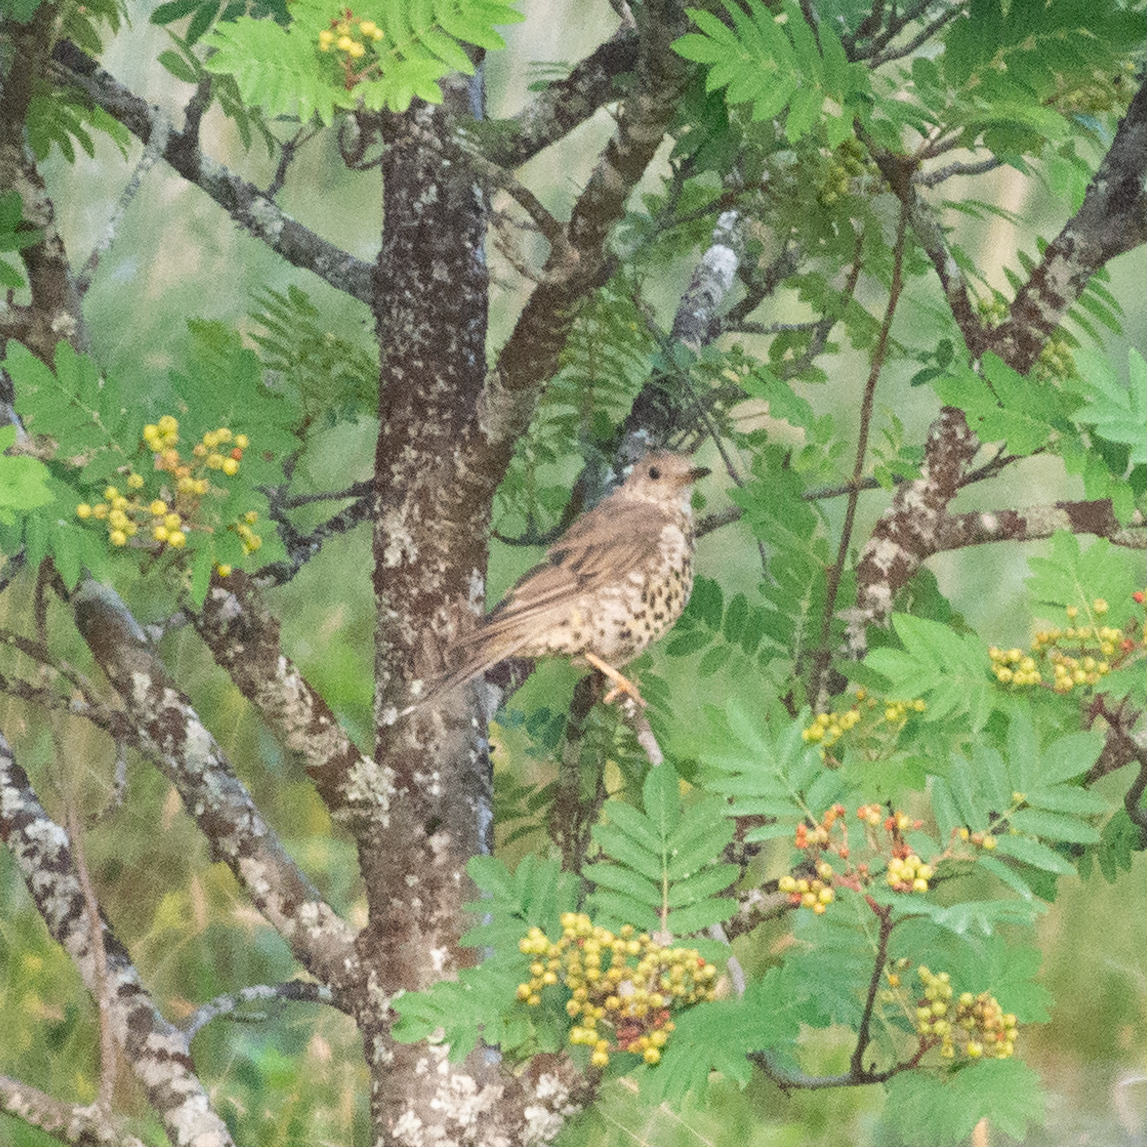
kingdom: Animalia
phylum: Chordata
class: Aves
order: Passeriformes
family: Turdidae
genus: Turdus
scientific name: Turdus viscivorus
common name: Mistle thrush
